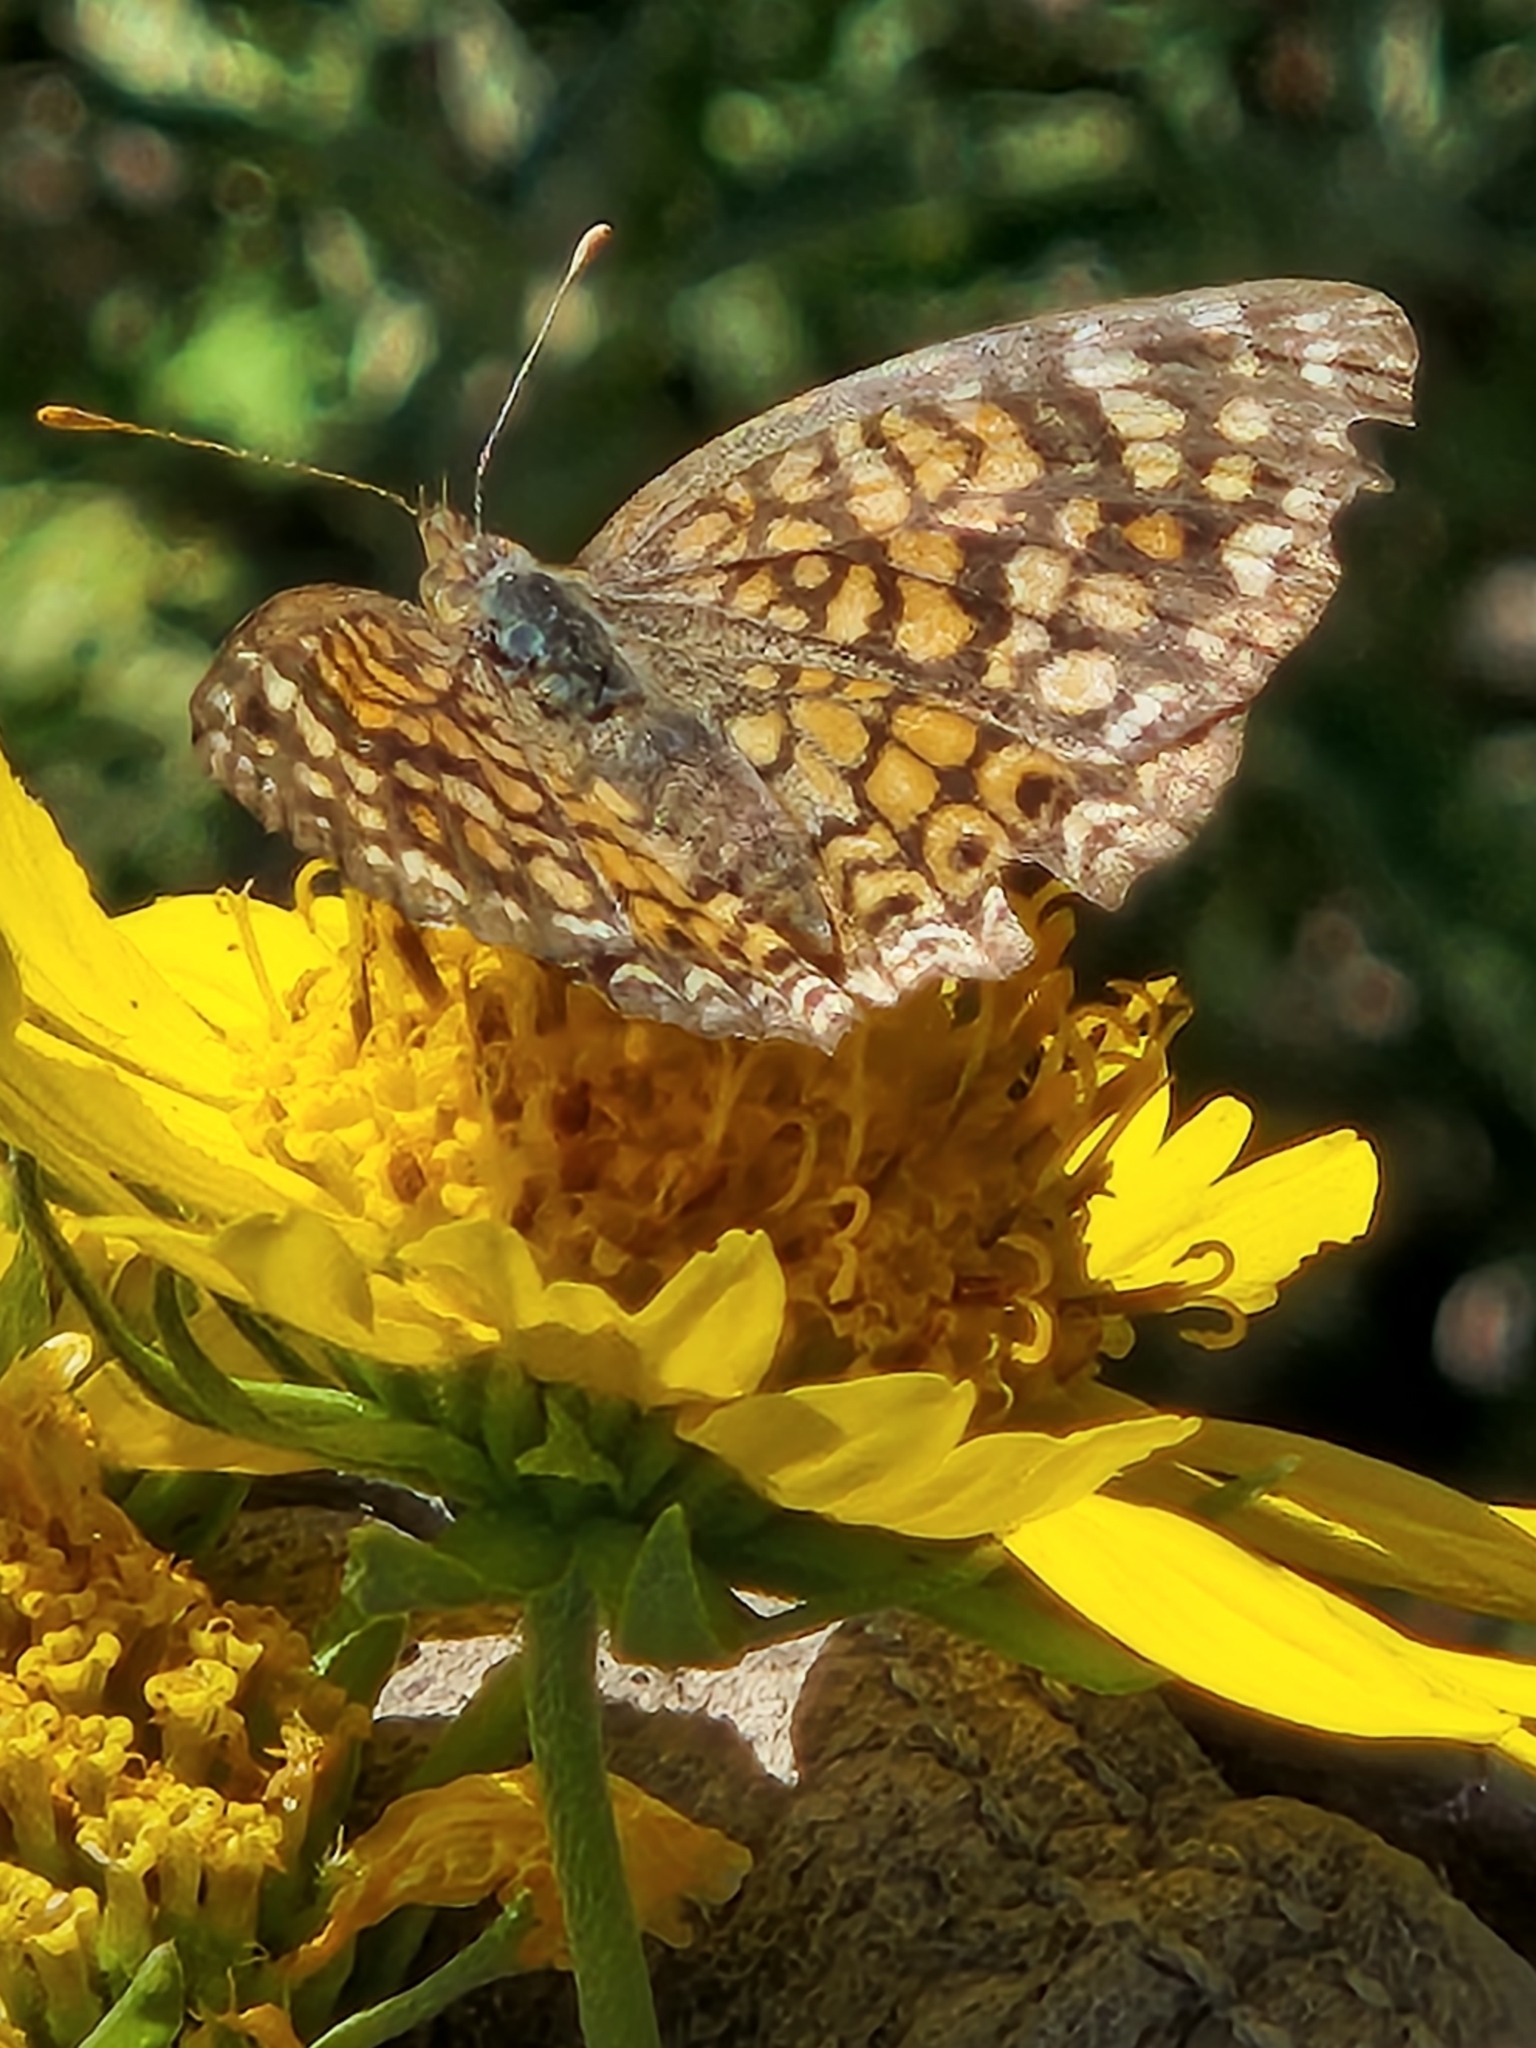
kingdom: Animalia
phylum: Arthropoda
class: Insecta
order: Lepidoptera
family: Nymphalidae
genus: Phyciodes
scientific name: Phyciodes vesta
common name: Vesta crescent
